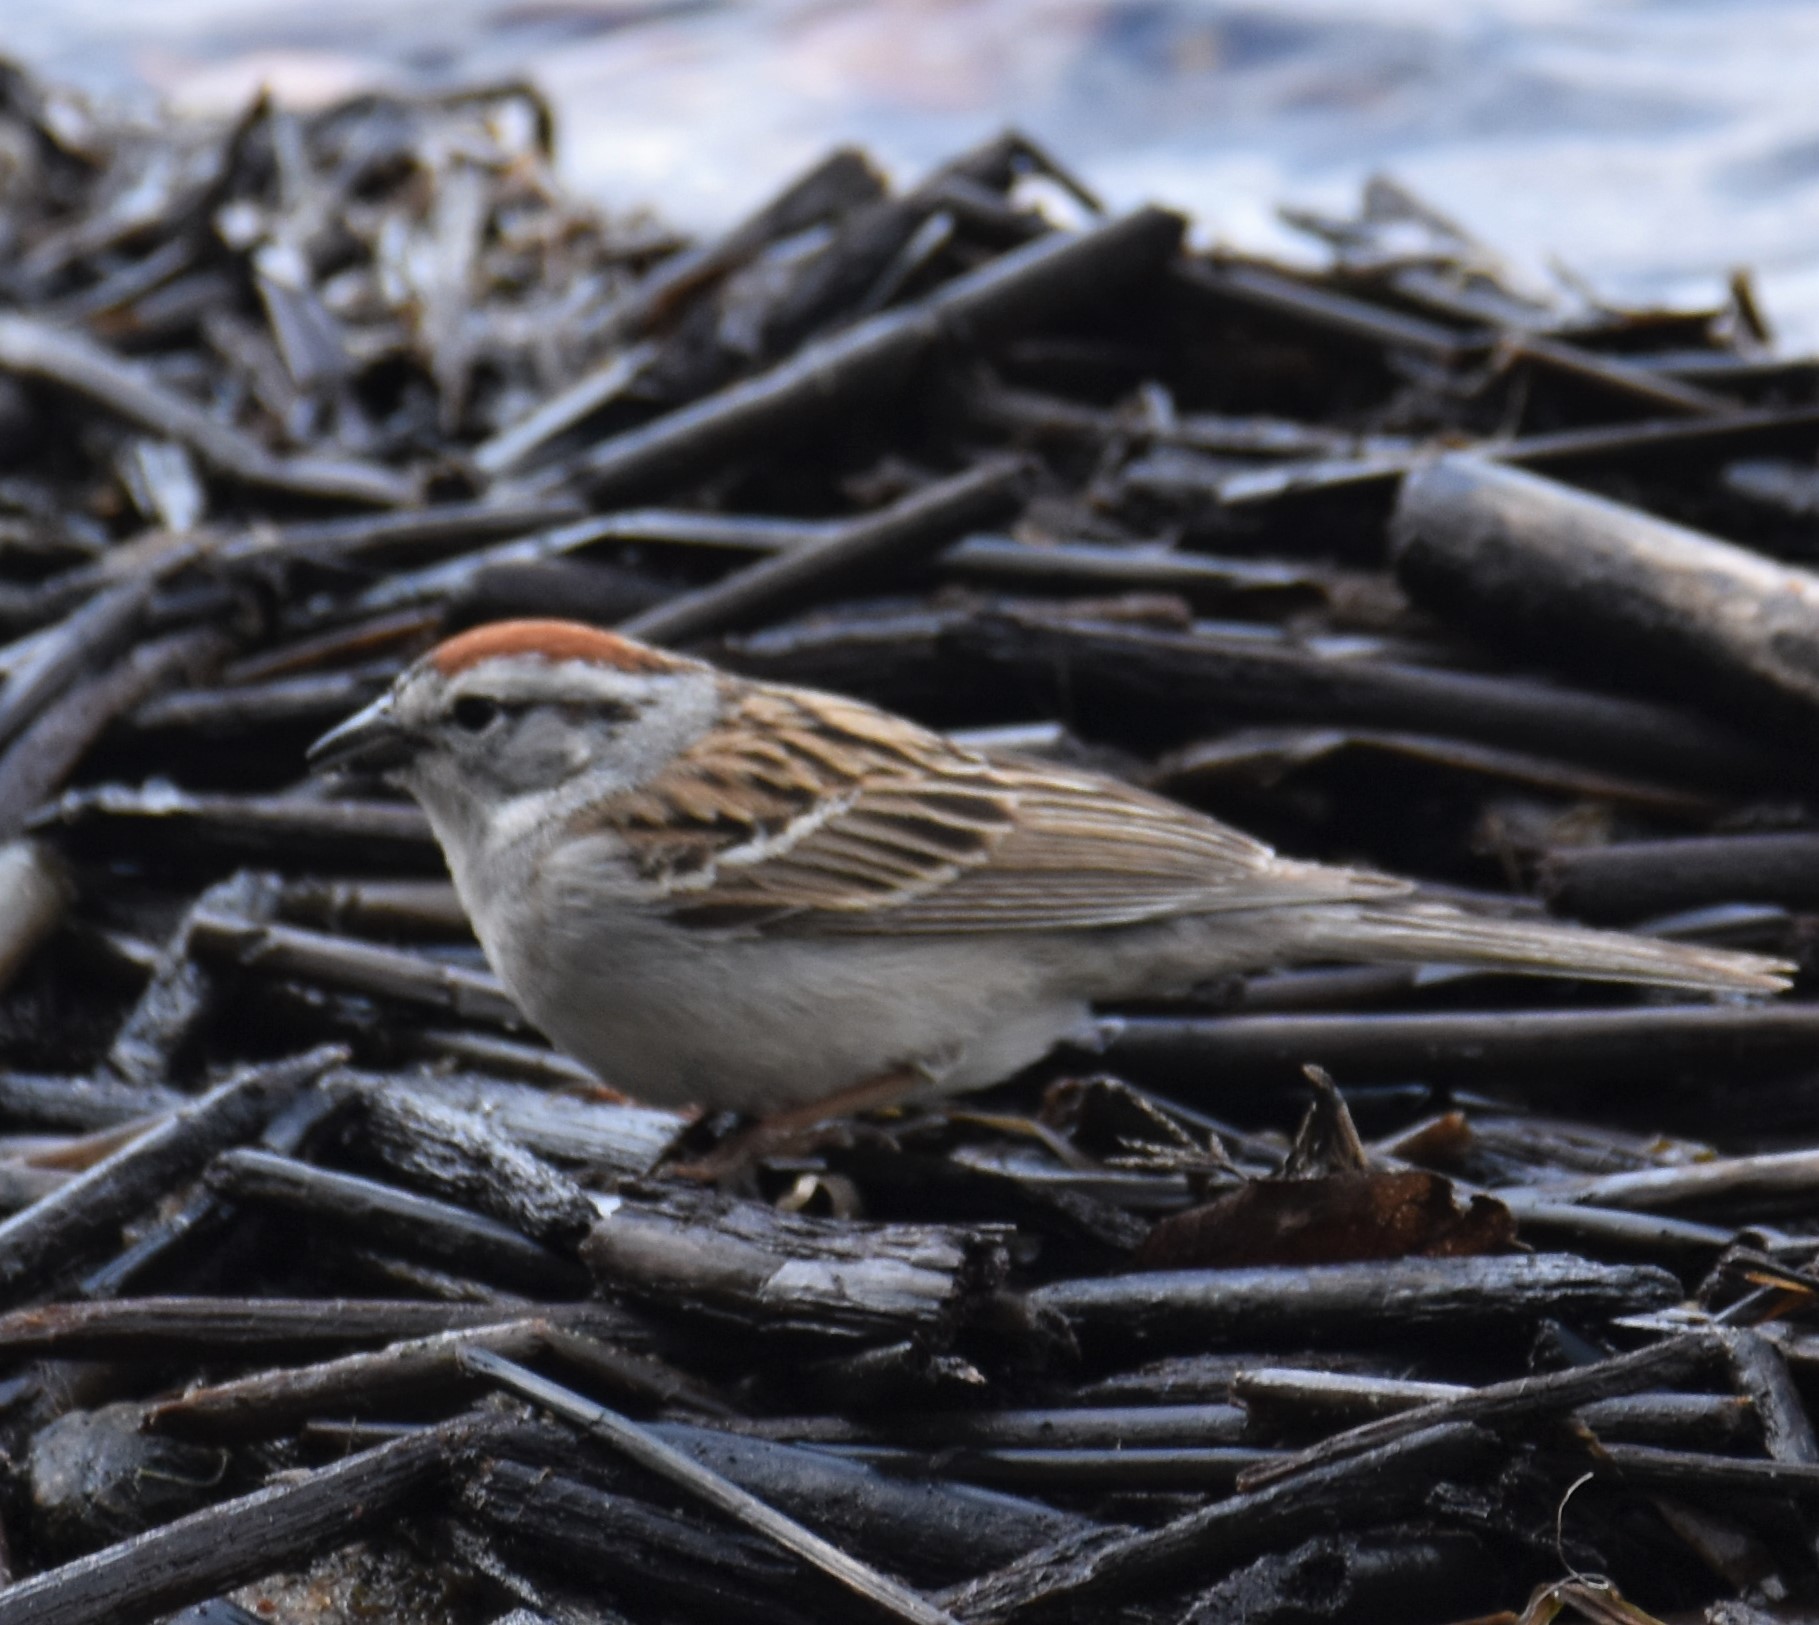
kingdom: Animalia
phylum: Chordata
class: Aves
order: Passeriformes
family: Passerellidae
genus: Spizella
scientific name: Spizella passerina
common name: Chipping sparrow
